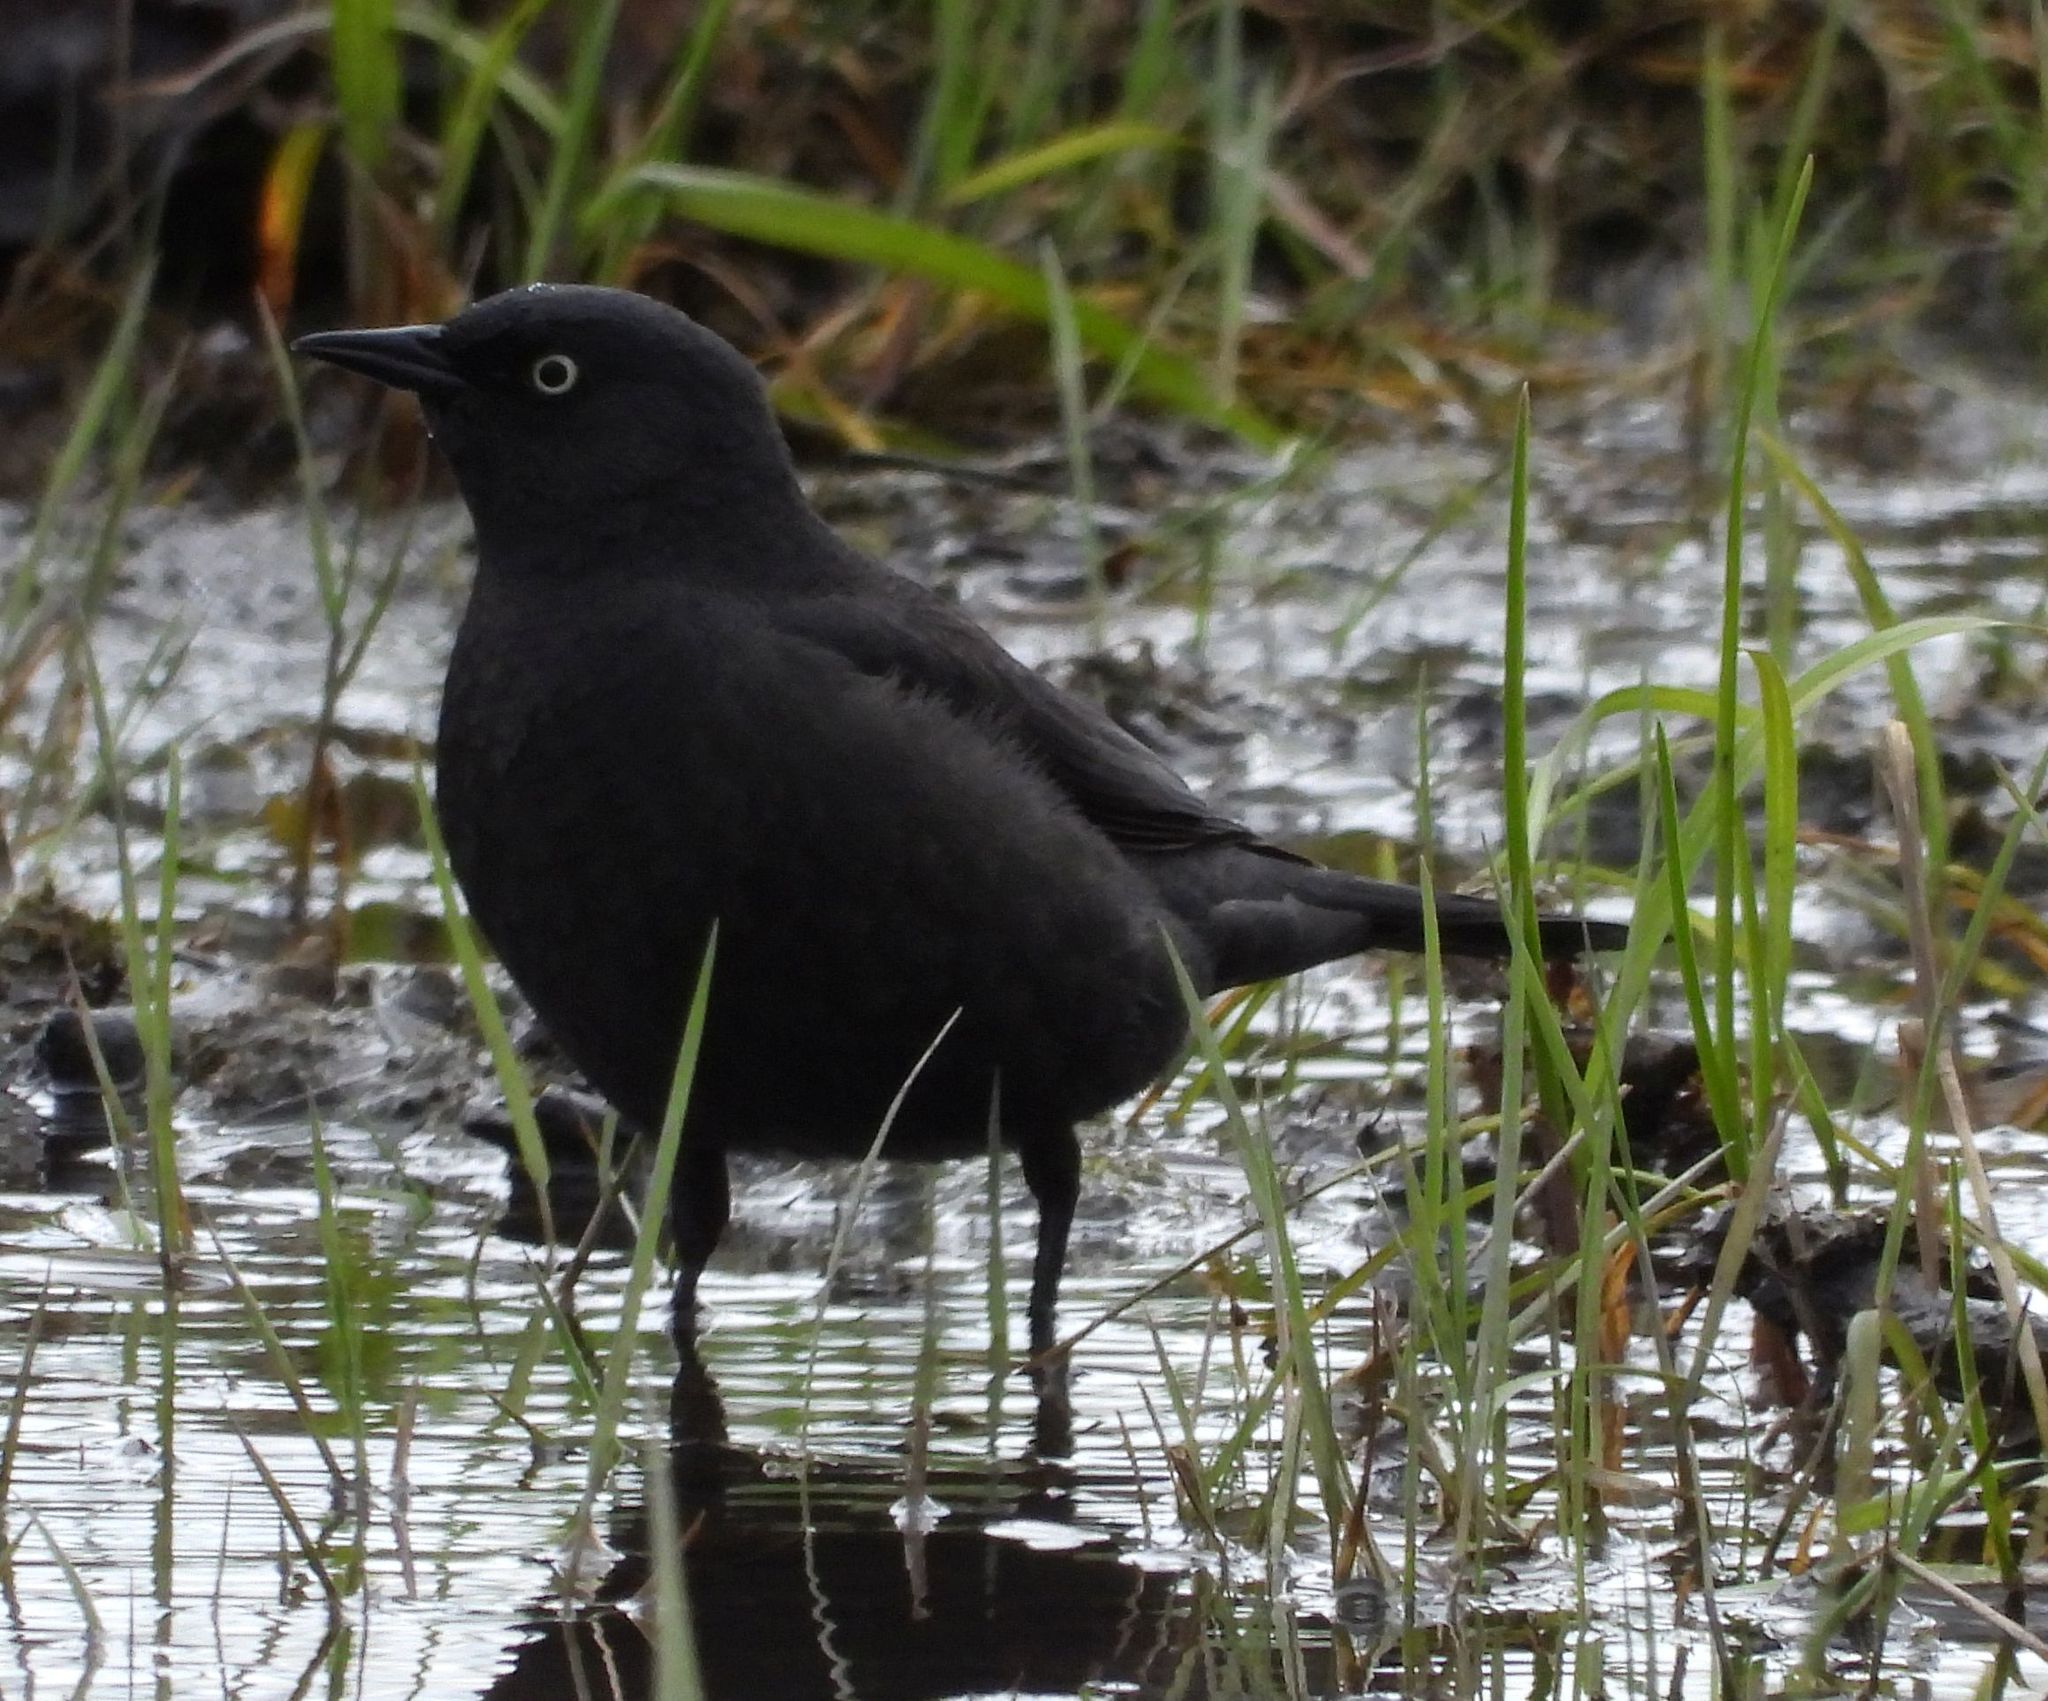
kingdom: Animalia
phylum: Chordata
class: Aves
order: Passeriformes
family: Icteridae
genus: Euphagus
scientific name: Euphagus carolinus
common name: Rusty blackbird
